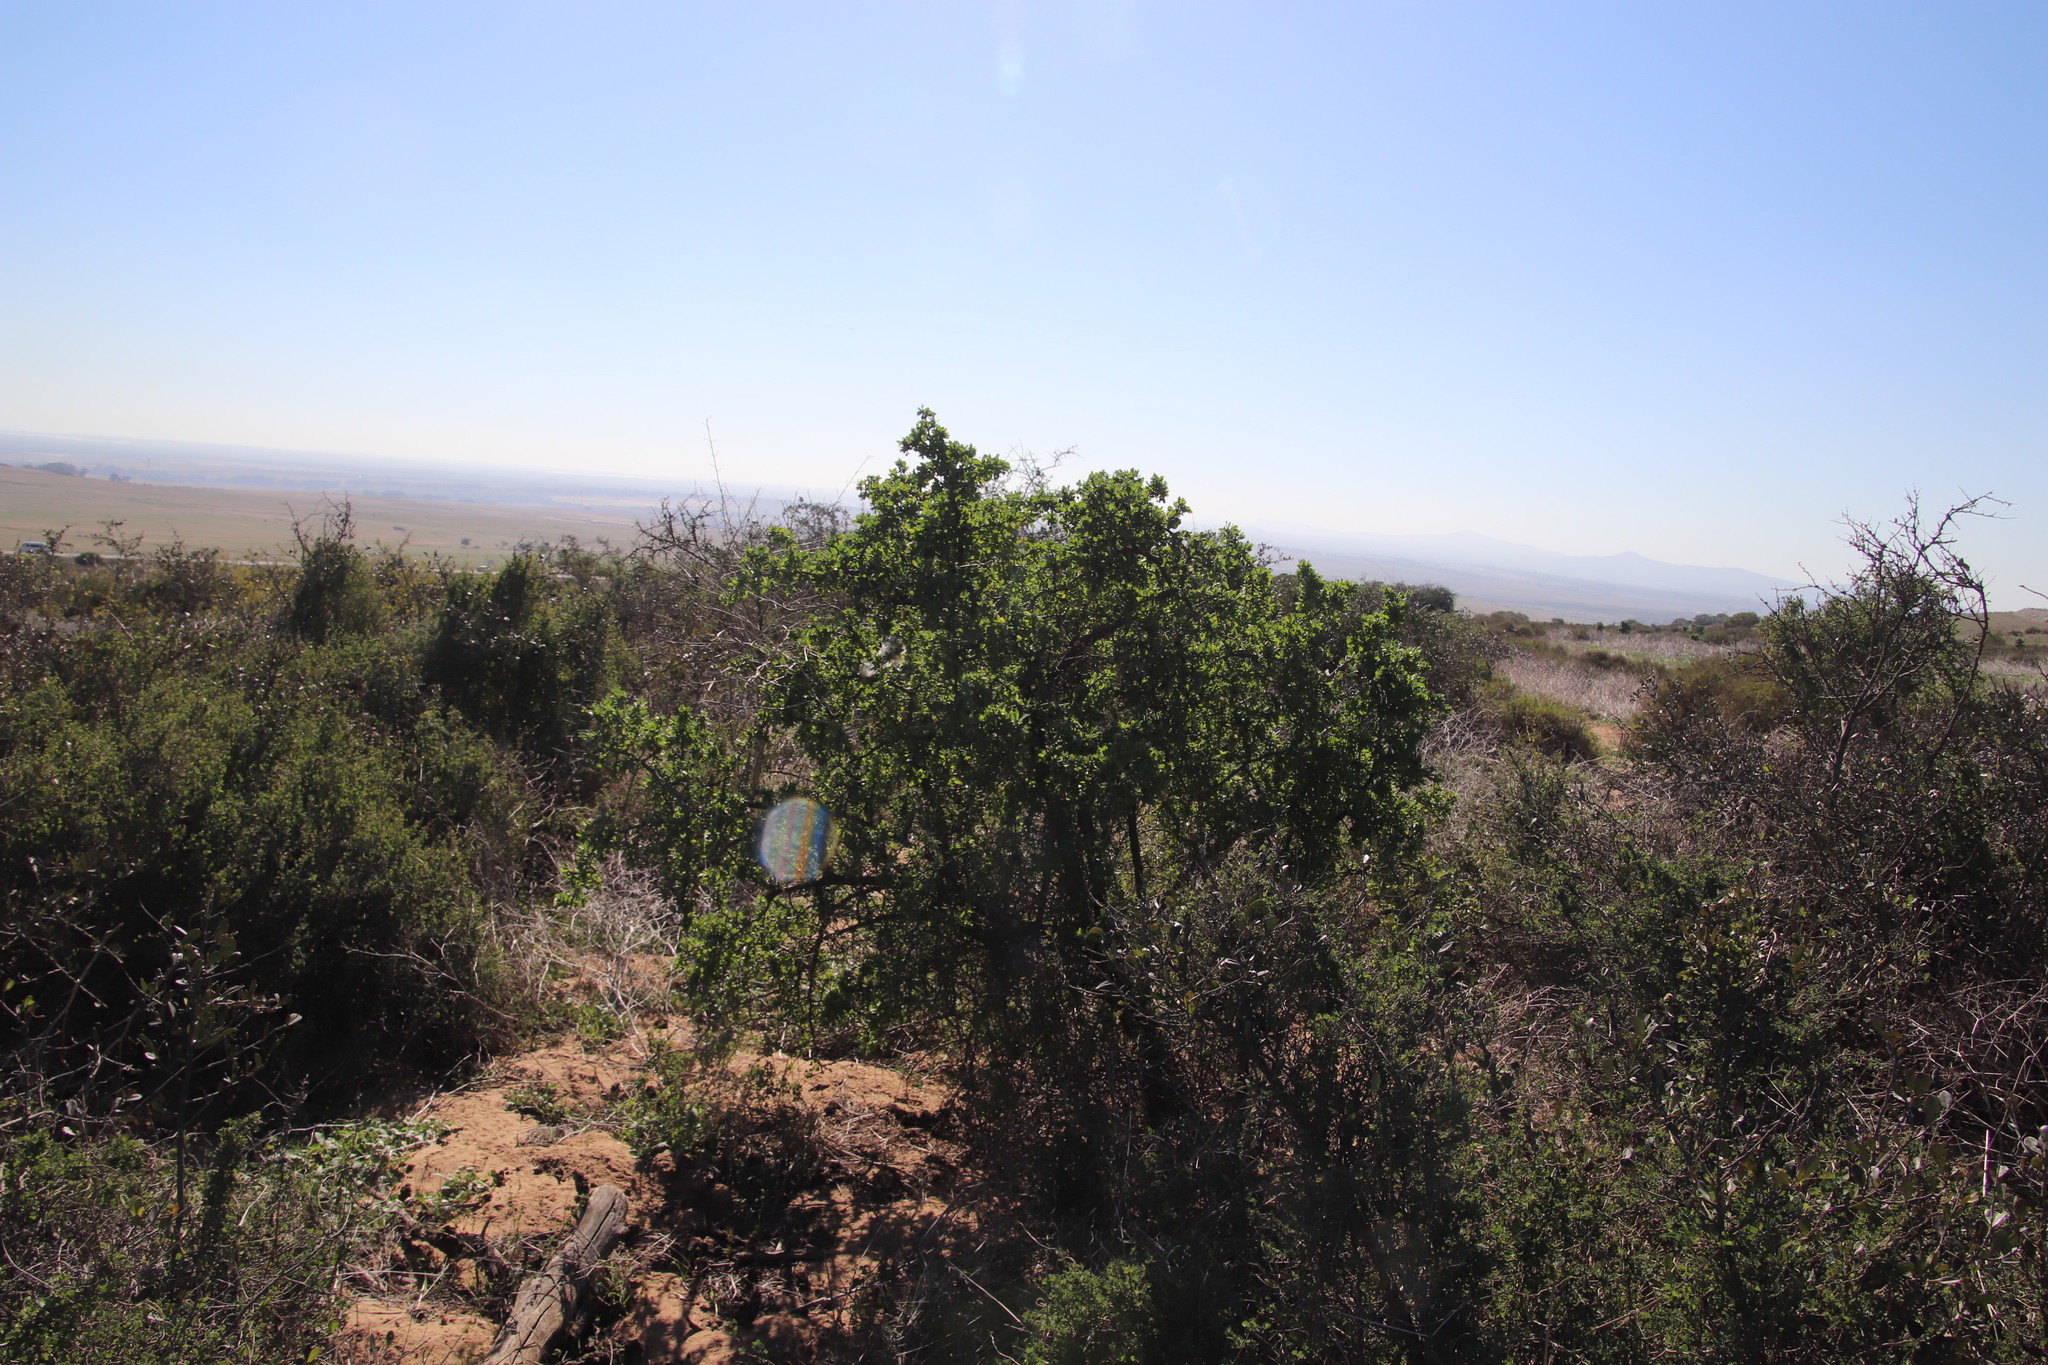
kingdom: Plantae
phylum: Tracheophyta
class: Magnoliopsida
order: Solanales
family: Solanaceae
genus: Lycium
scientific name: Lycium ferocissimum
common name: African boxthorn
